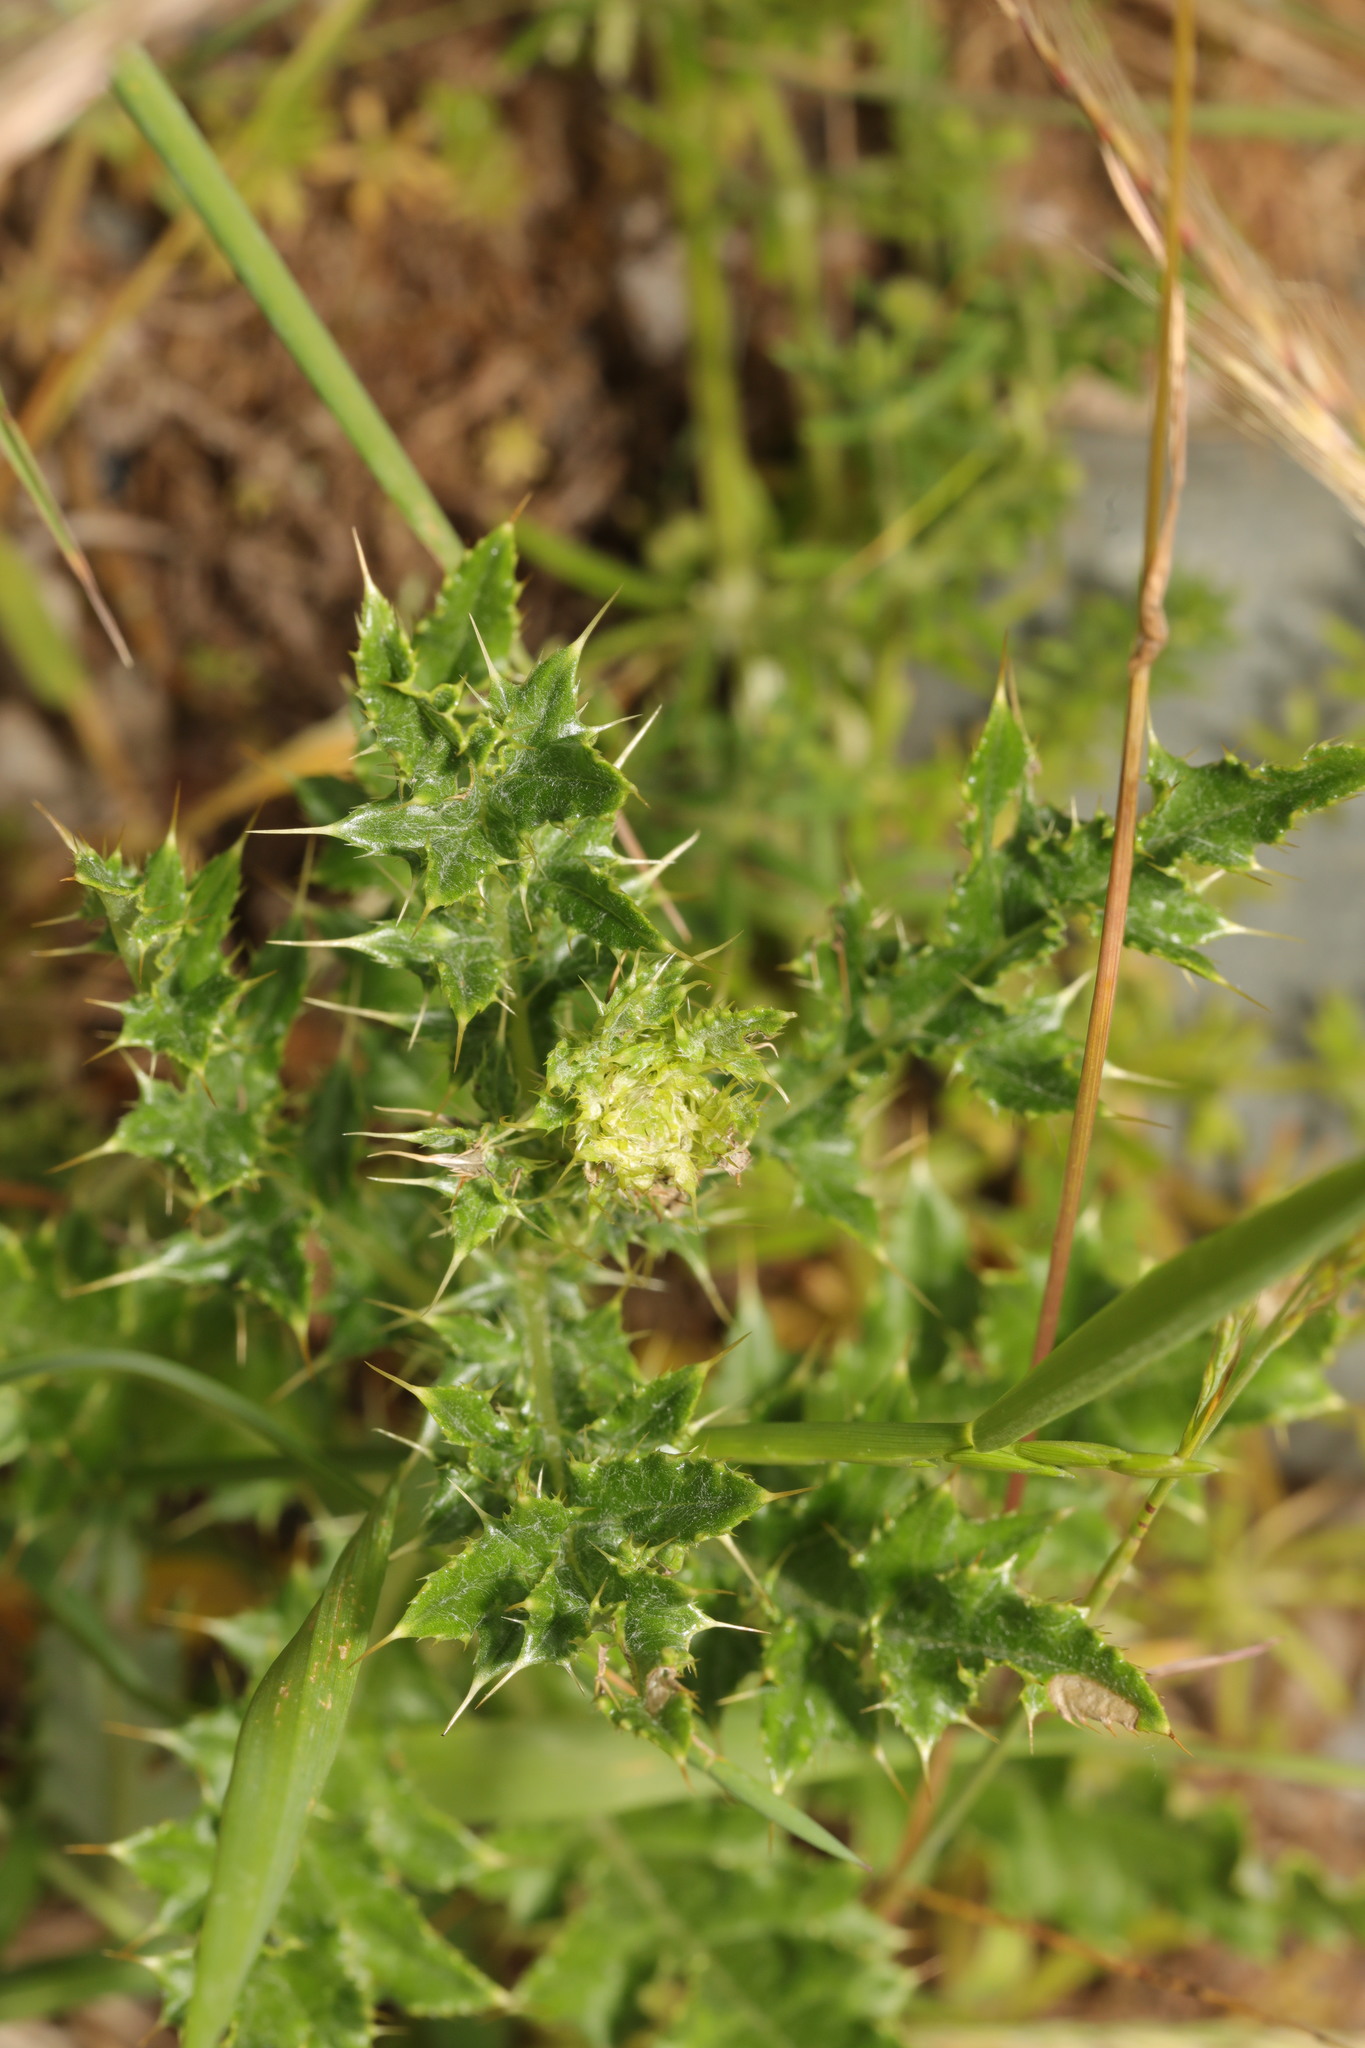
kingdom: Plantae
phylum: Tracheophyta
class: Magnoliopsida
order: Asterales
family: Asteraceae
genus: Cirsium
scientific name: Cirsium arvense
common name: Creeping thistle
